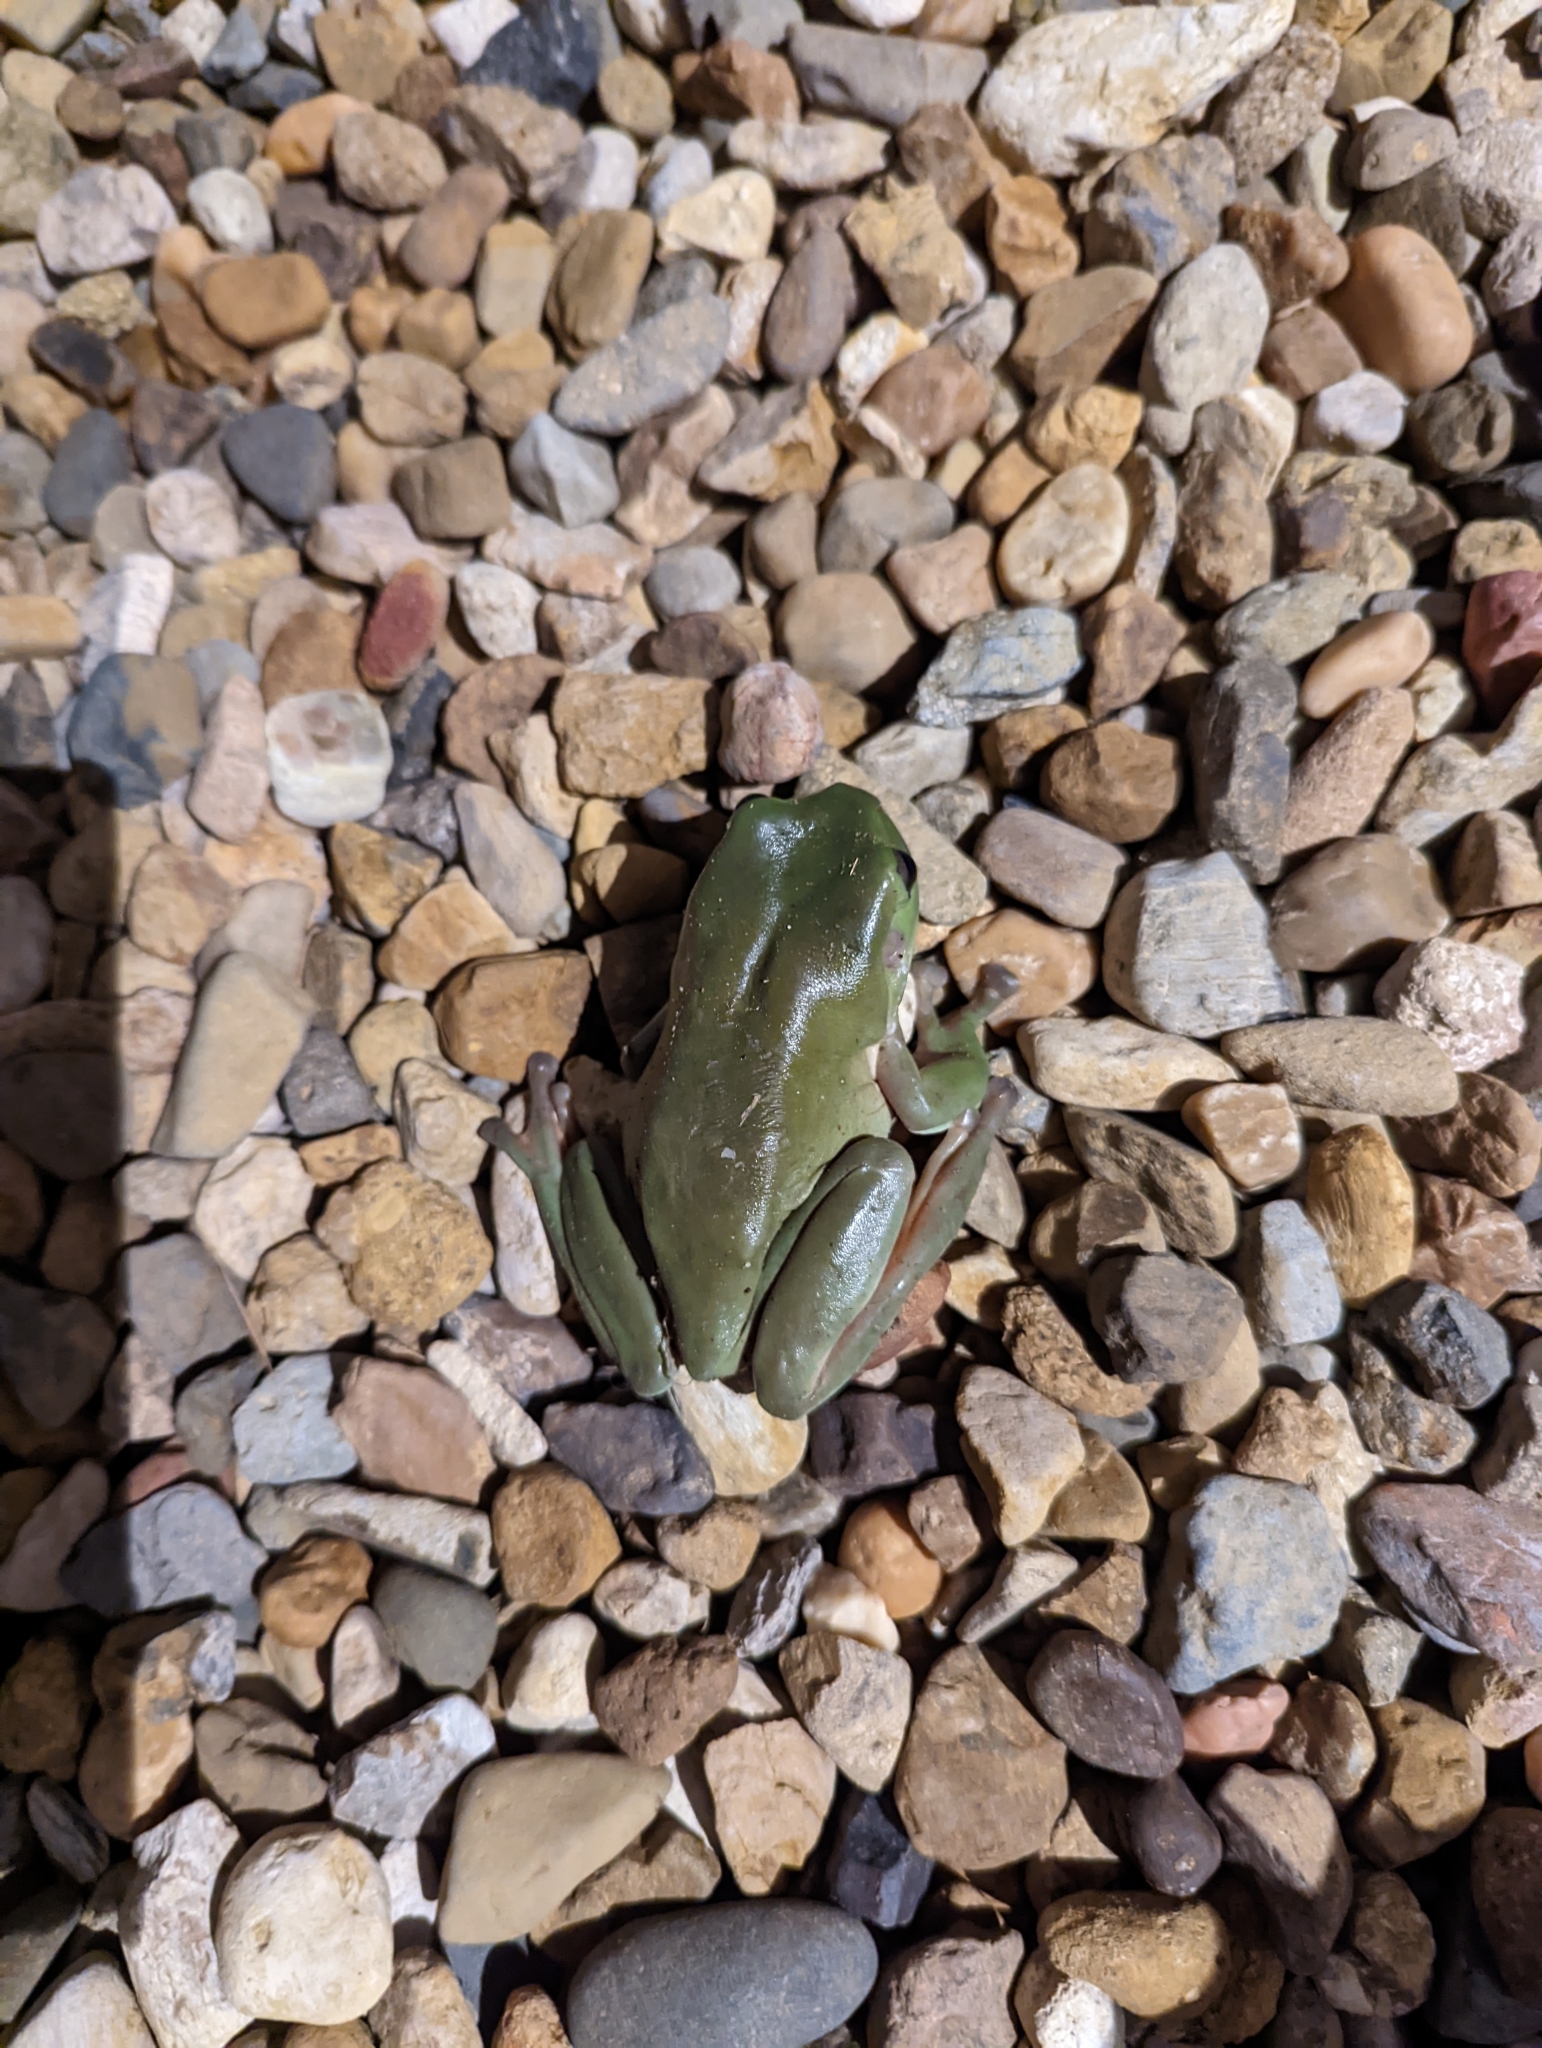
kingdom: Animalia
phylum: Chordata
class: Amphibia
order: Anura
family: Pelodryadidae
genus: Ranoidea
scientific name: Ranoidea caerulea
